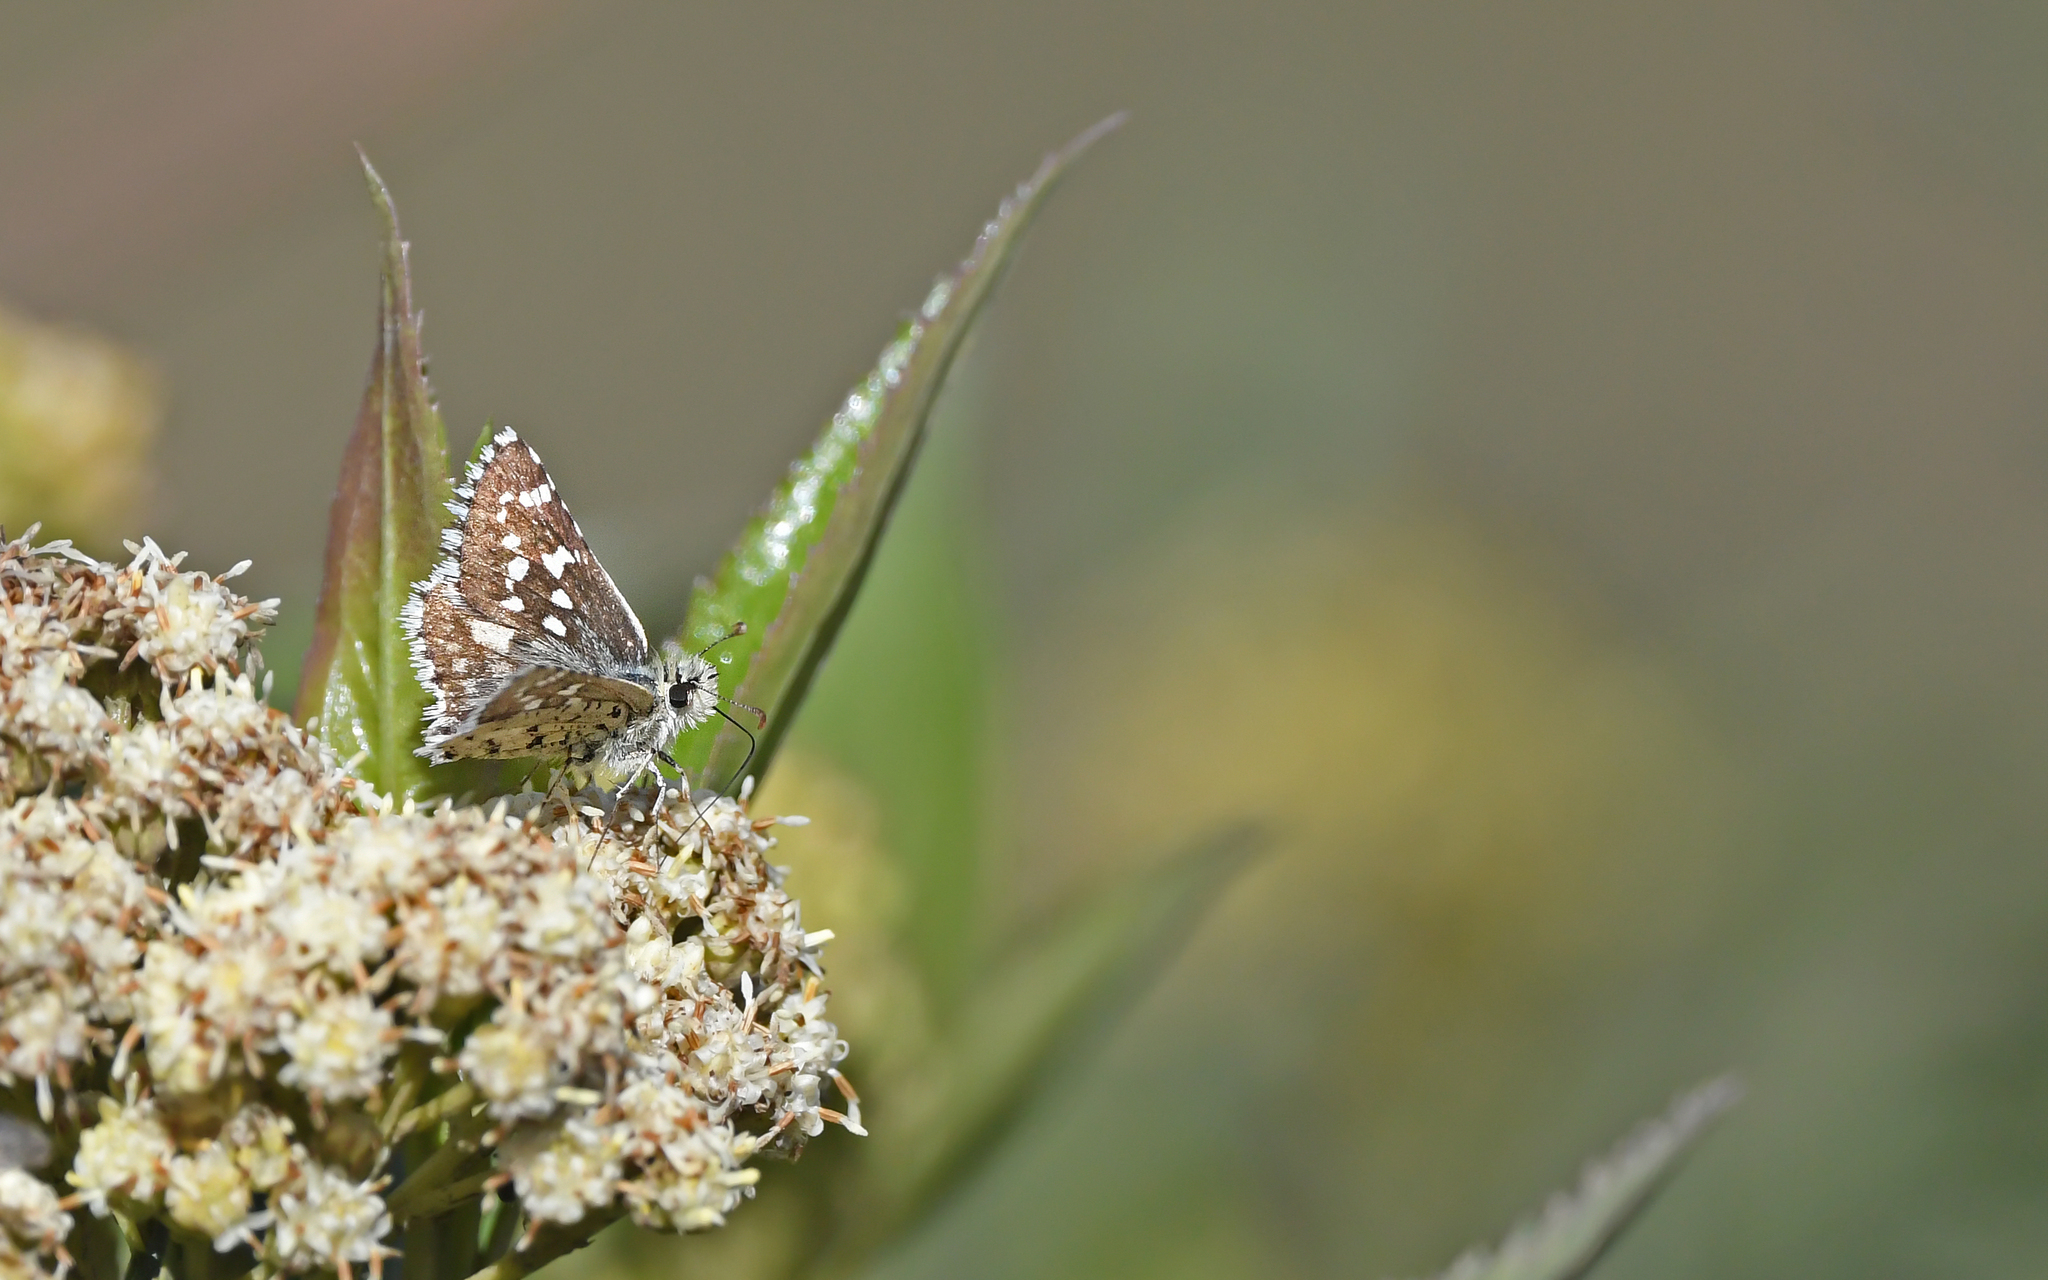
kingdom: Animalia
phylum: Arthropoda
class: Insecta
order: Lepidoptera
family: Hesperiidae
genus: Chirgus
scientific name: Chirgus bocchoris
